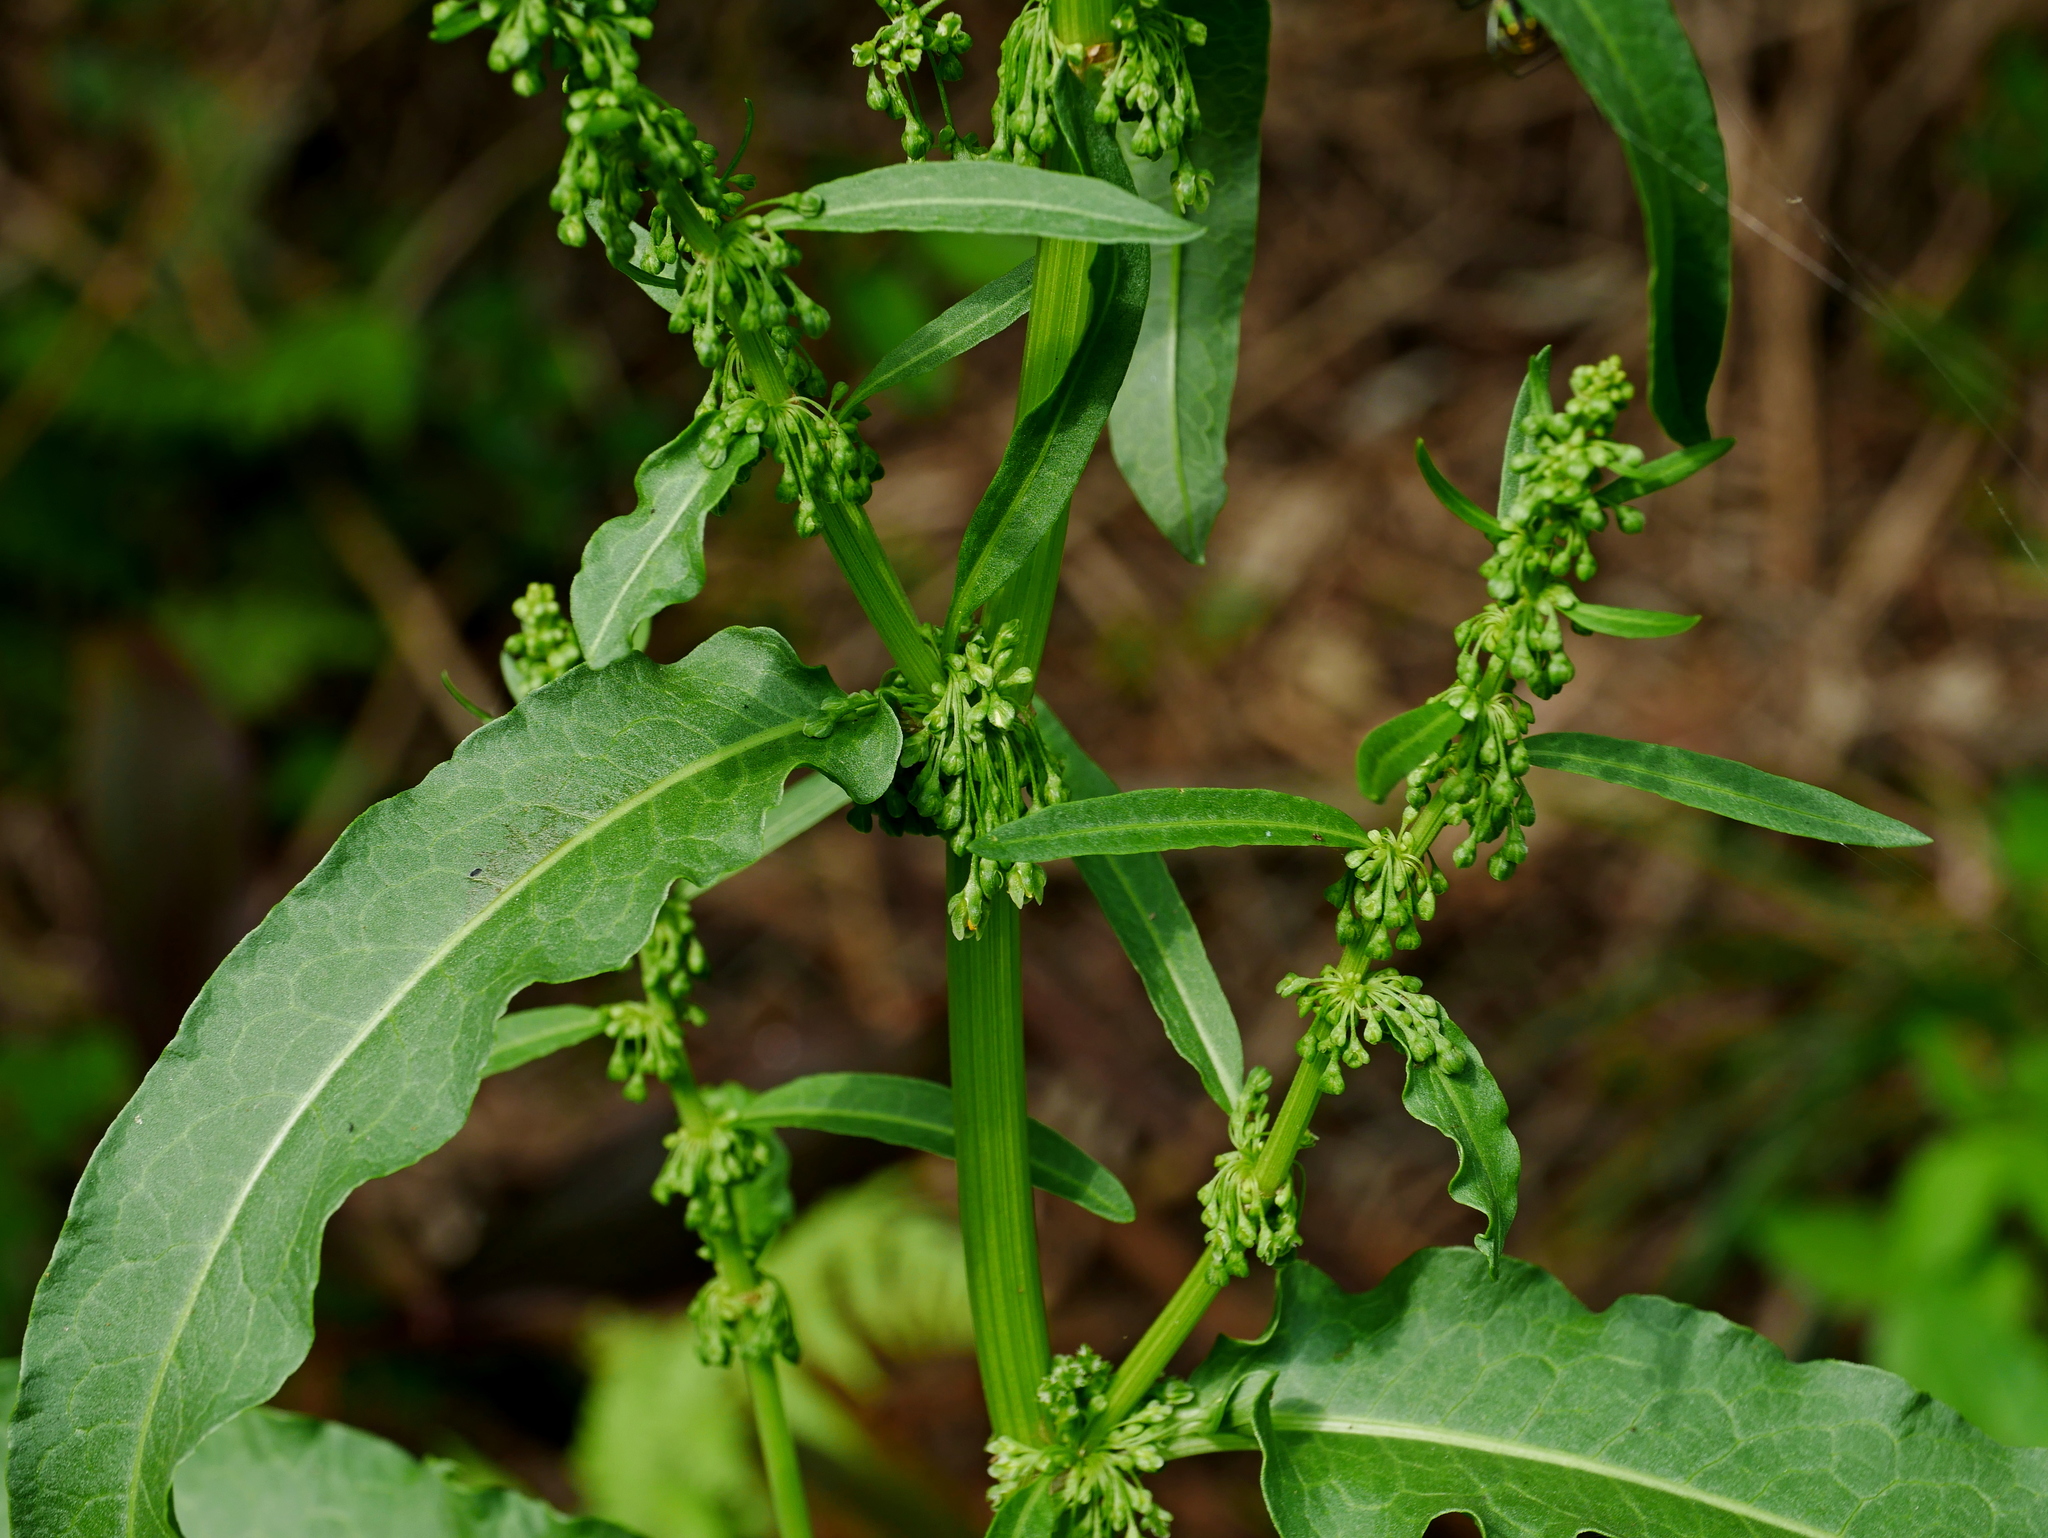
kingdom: Plantae
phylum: Tracheophyta
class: Magnoliopsida
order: Caryophyllales
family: Polygonaceae
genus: Rumex
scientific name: Rumex japonicus
